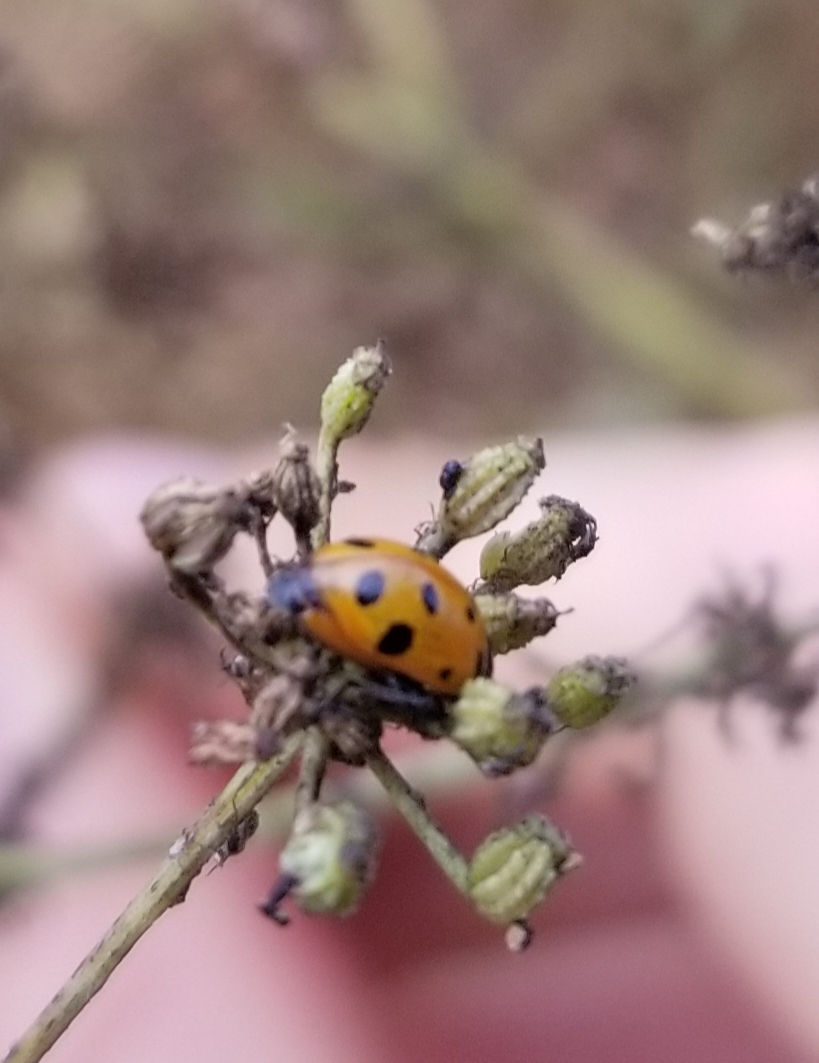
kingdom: Animalia
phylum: Arthropoda
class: Insecta
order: Coleoptera
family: Coccinellidae
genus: Hippodamia
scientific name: Hippodamia convergens
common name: Convergent lady beetle
